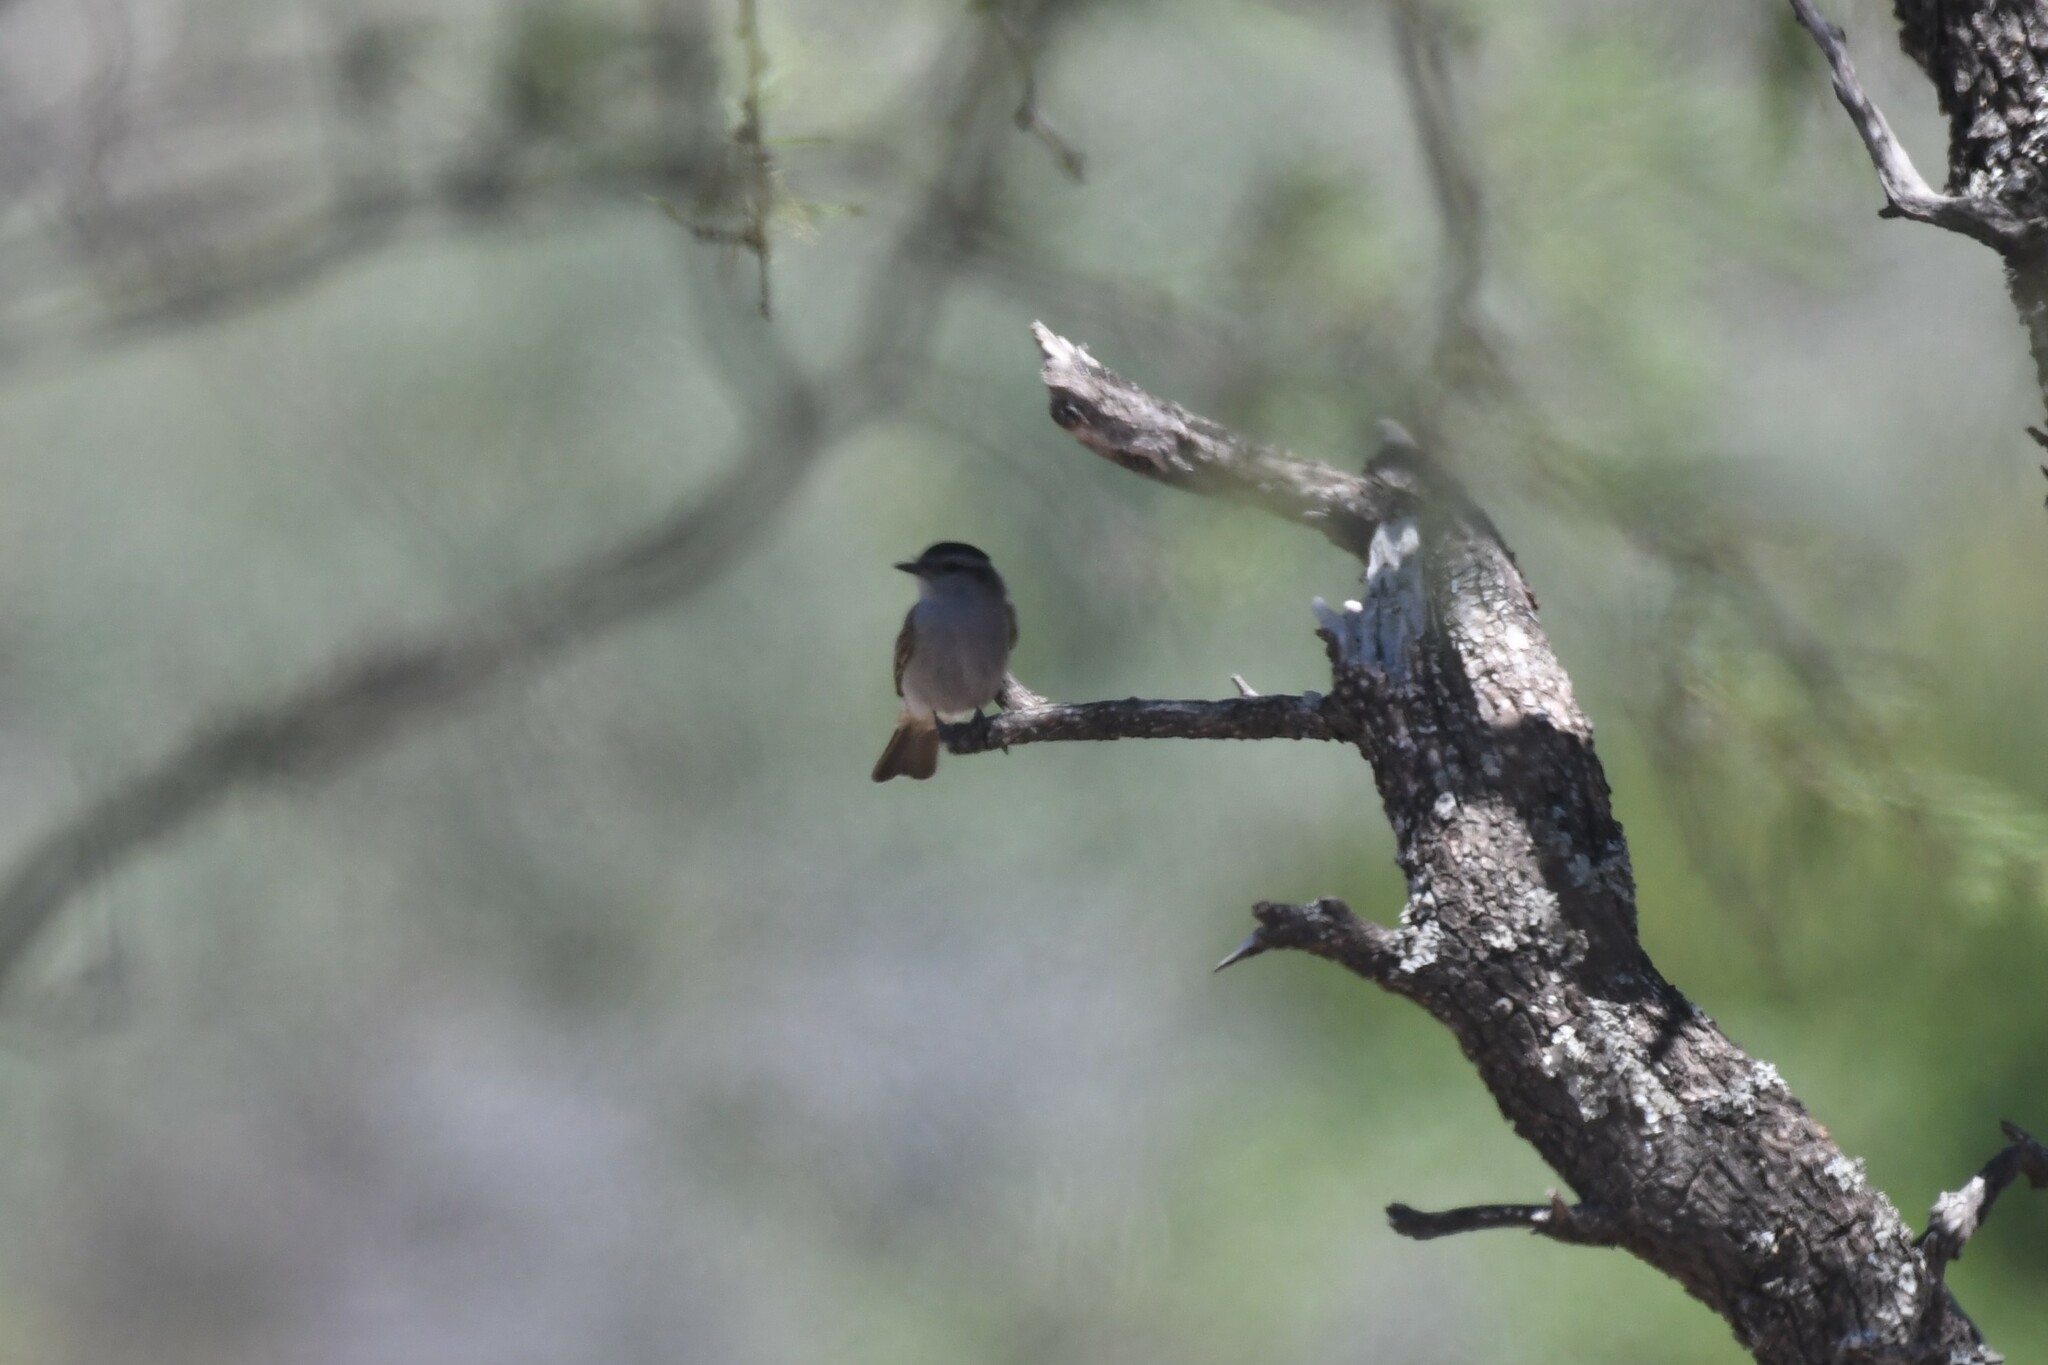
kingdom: Animalia
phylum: Chordata
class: Aves
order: Passeriformes
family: Tyrannidae
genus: Empidonomus
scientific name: Empidonomus aurantioatrocristatus
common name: Crowned slaty flycatcher
